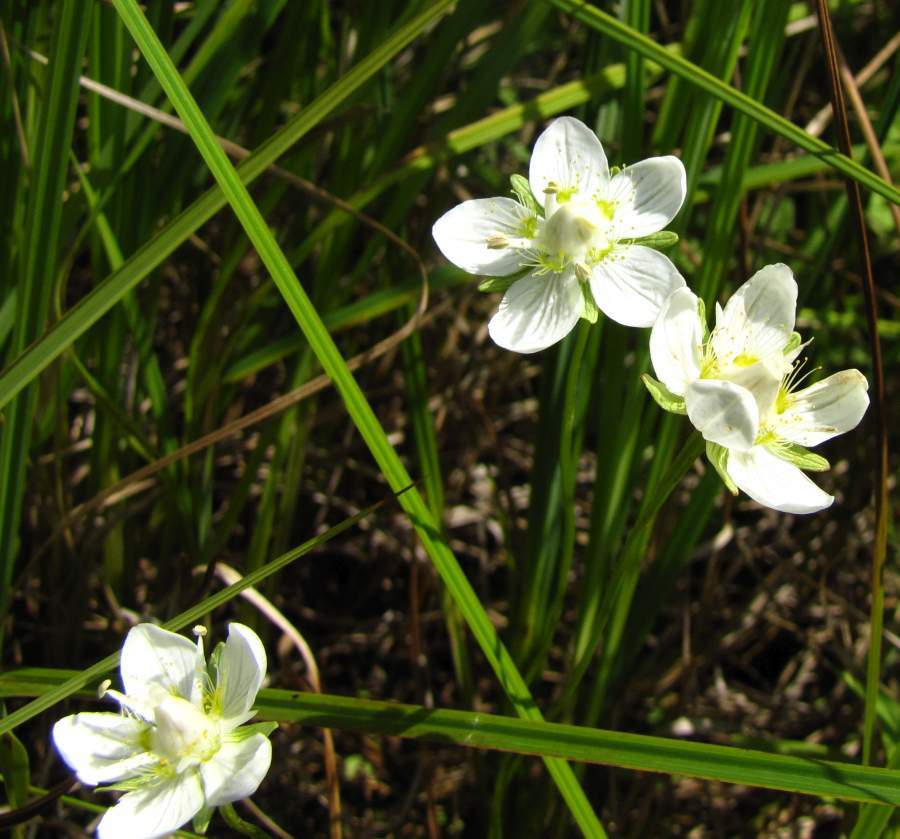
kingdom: Plantae
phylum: Tracheophyta
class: Magnoliopsida
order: Celastrales
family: Parnassiaceae
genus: Parnassia
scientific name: Parnassia palustris
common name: Grass-of-parnassus
